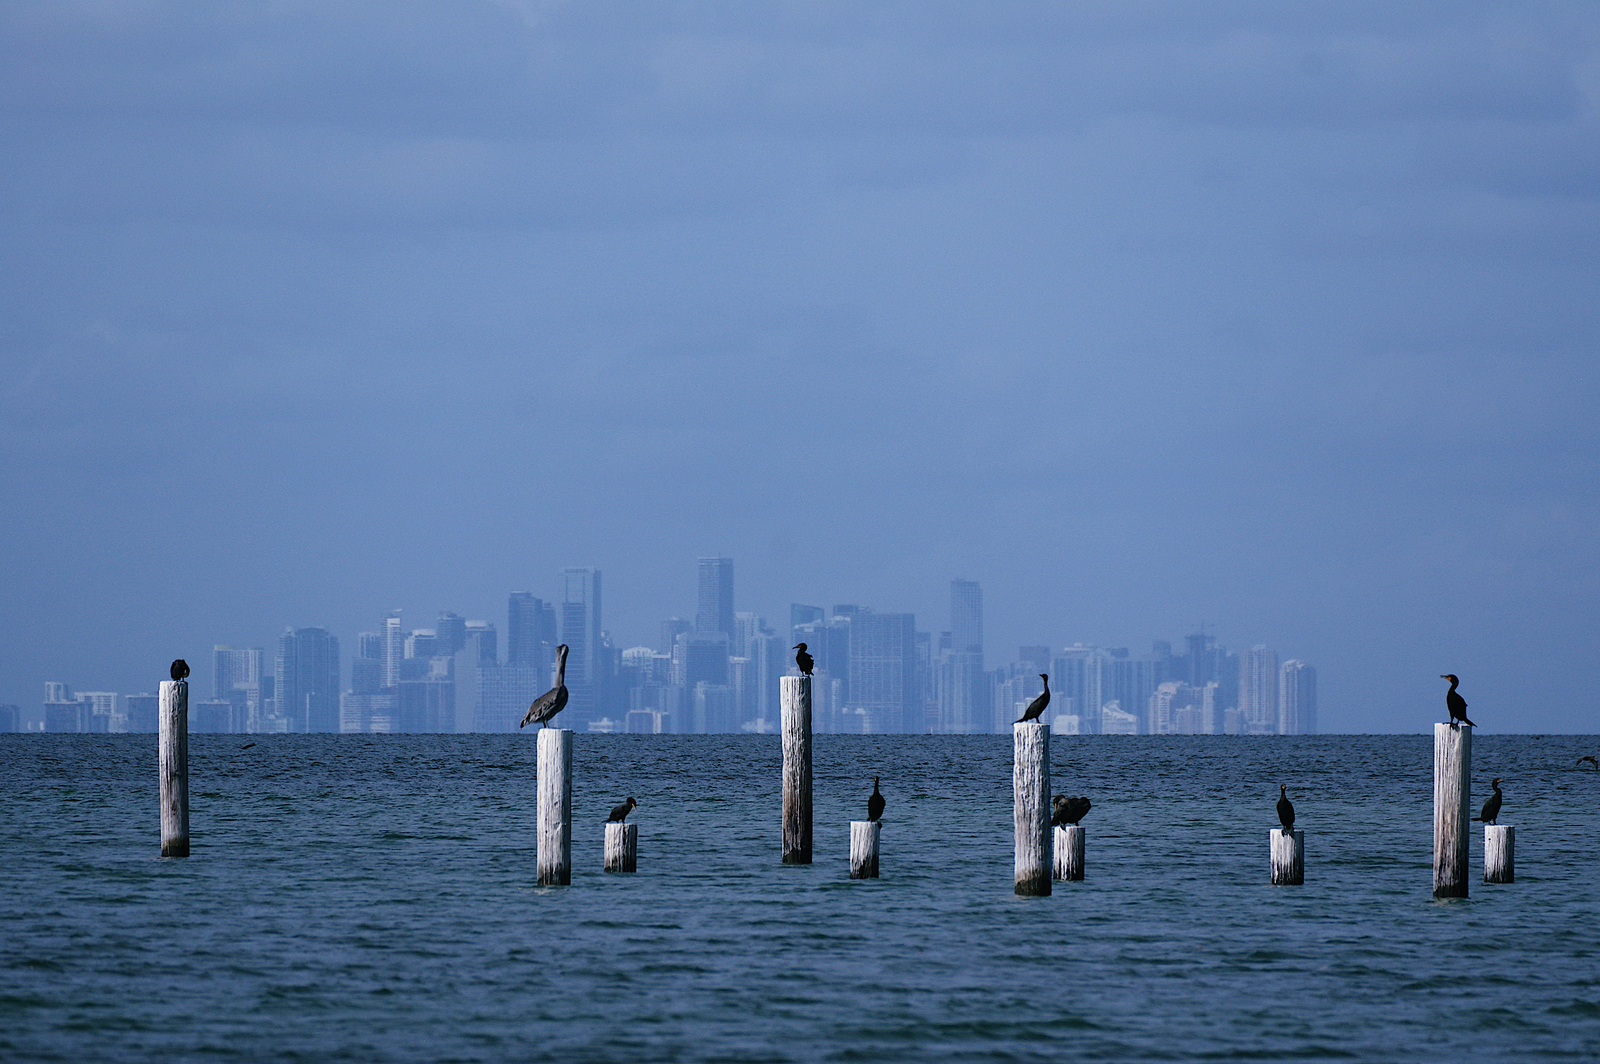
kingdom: Animalia
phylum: Chordata
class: Aves
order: Suliformes
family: Phalacrocoracidae
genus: Phalacrocorax
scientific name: Phalacrocorax auritus
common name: Double-crested cormorant
